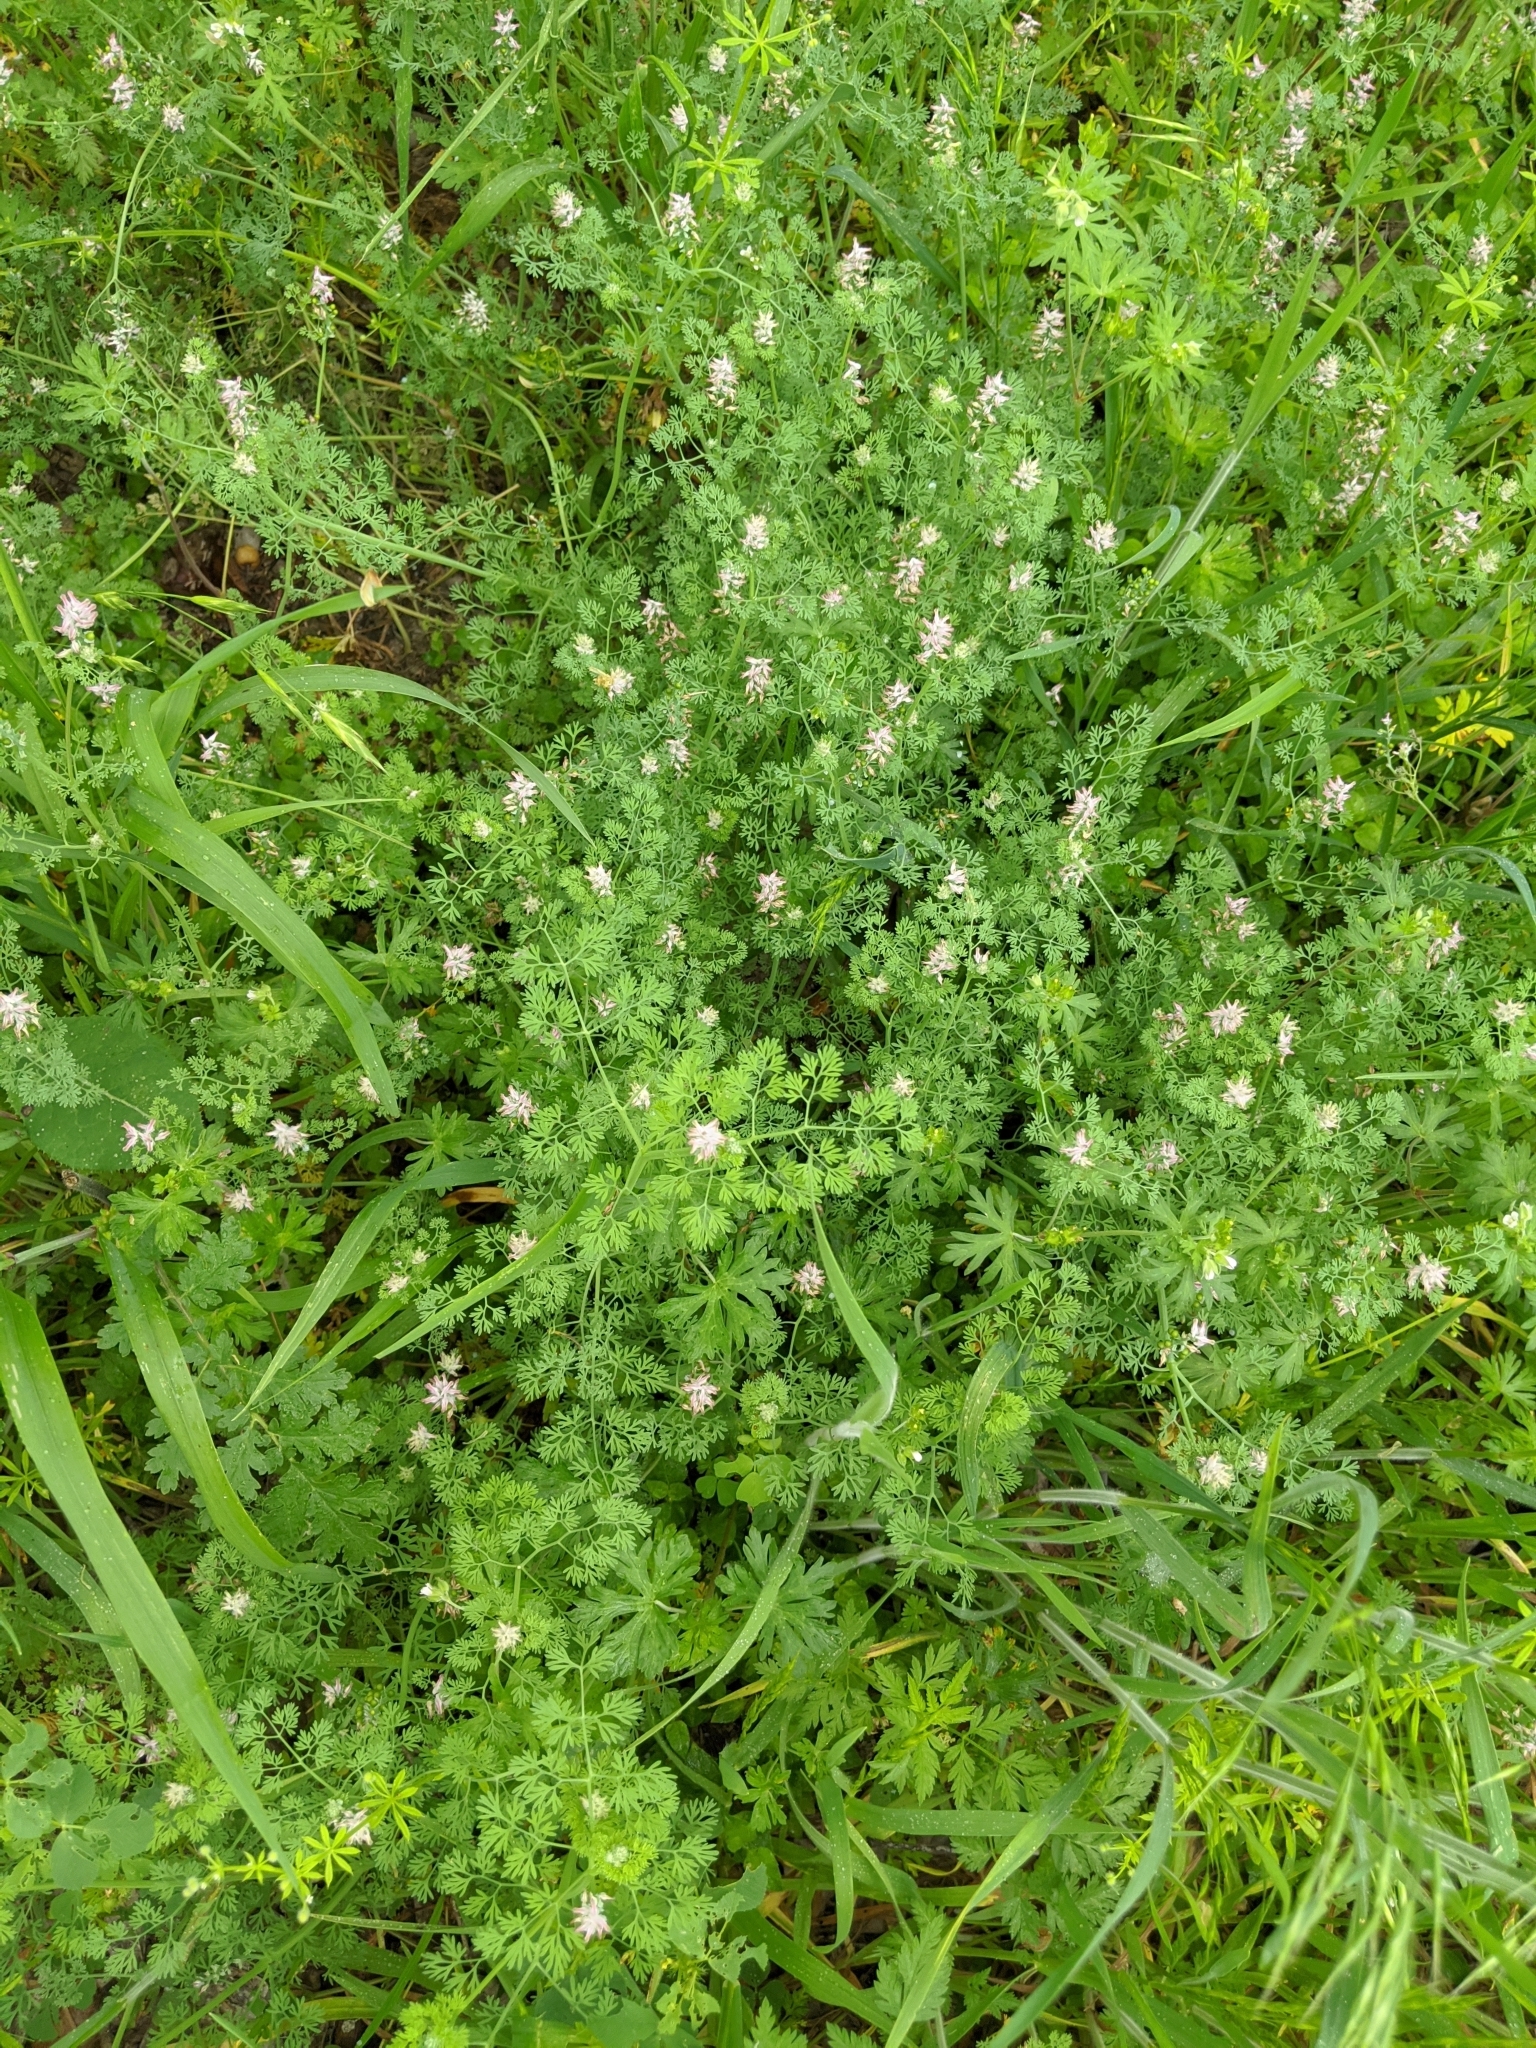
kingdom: Plantae
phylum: Tracheophyta
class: Magnoliopsida
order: Ranunculales
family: Papaveraceae
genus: Fumaria
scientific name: Fumaria densiflora
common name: Dense-flowered fumitory
